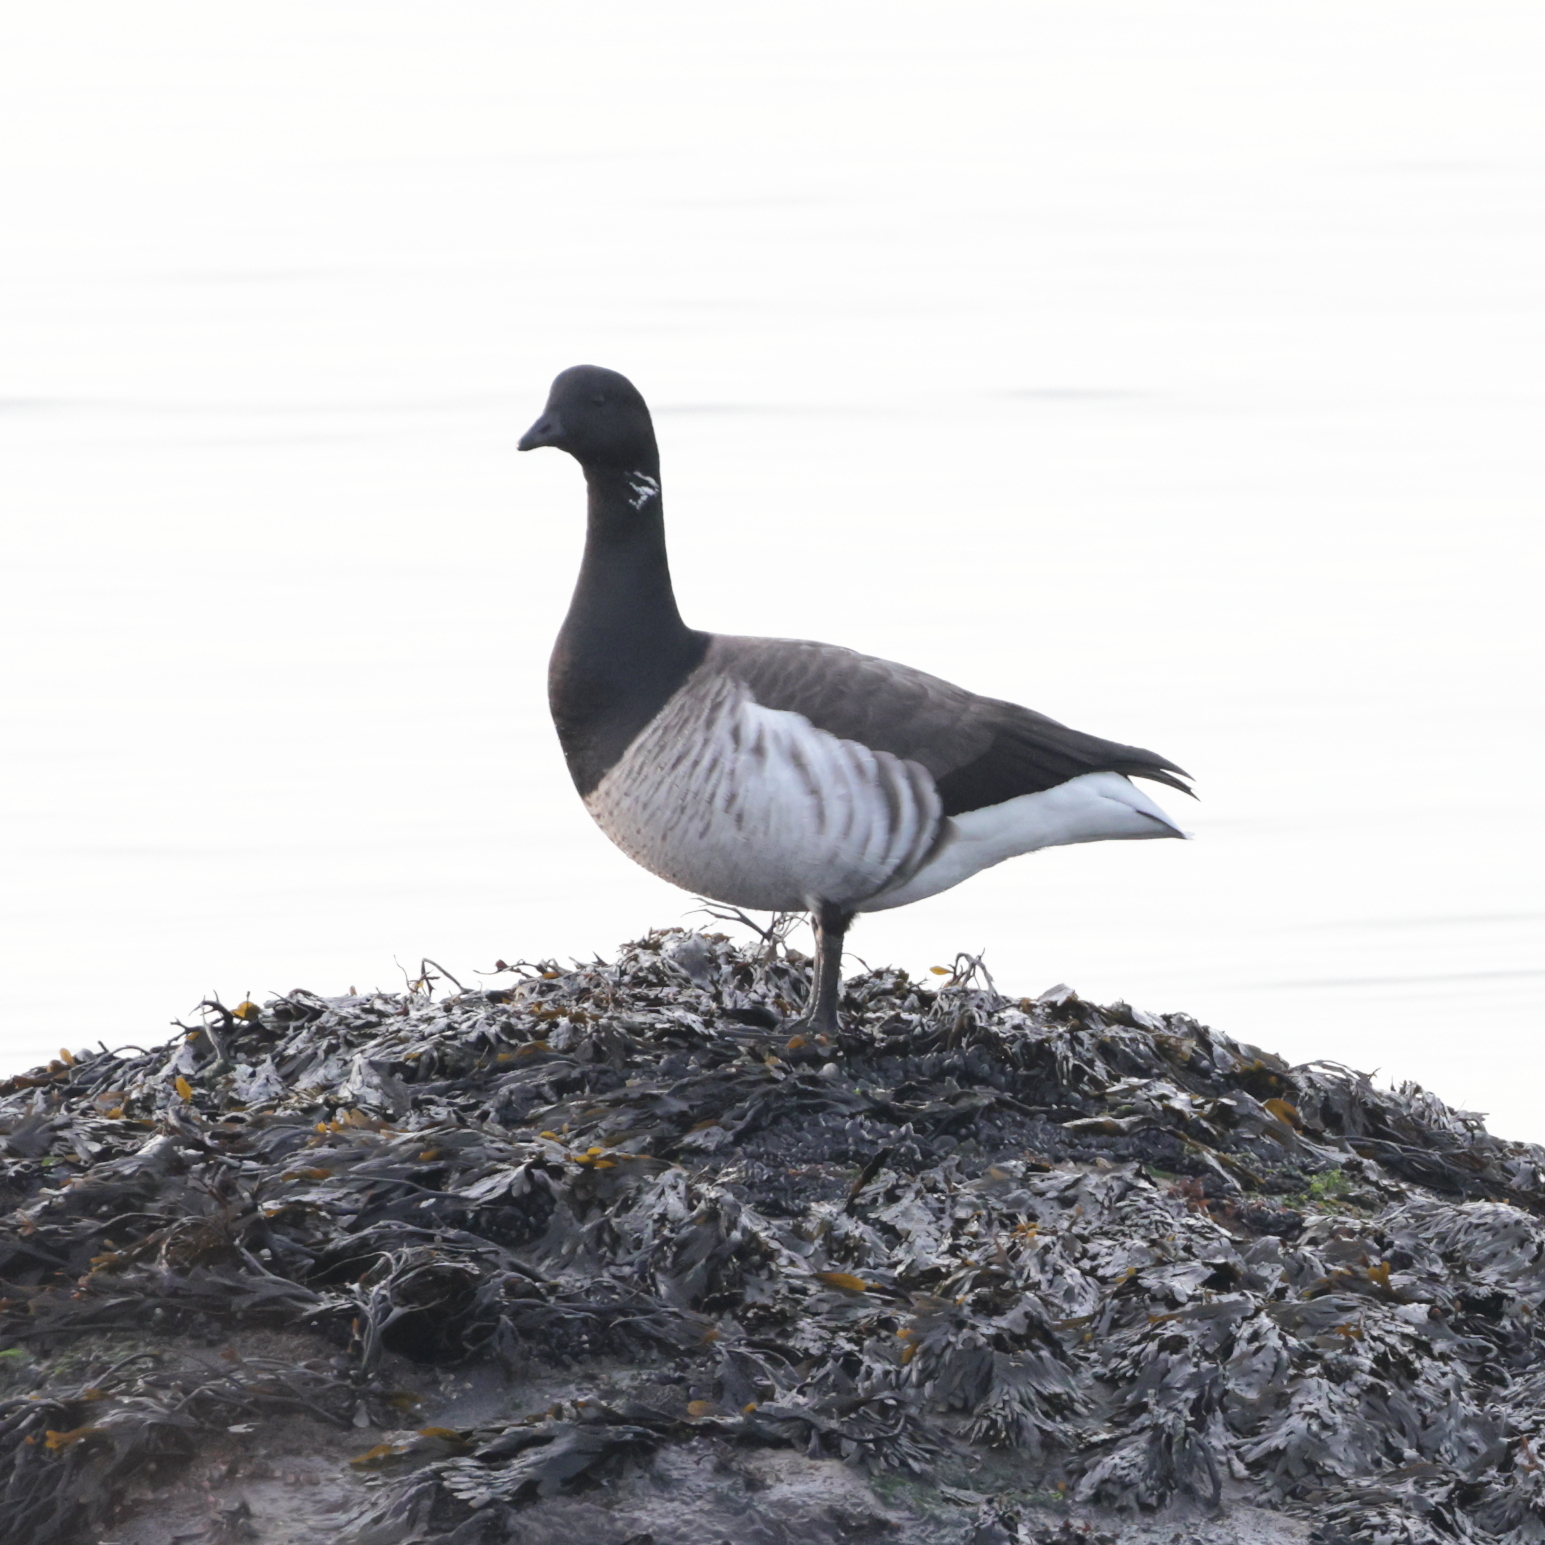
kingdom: Animalia
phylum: Chordata
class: Aves
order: Anseriformes
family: Anatidae
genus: Branta
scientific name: Branta bernicla
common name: Brant goose
